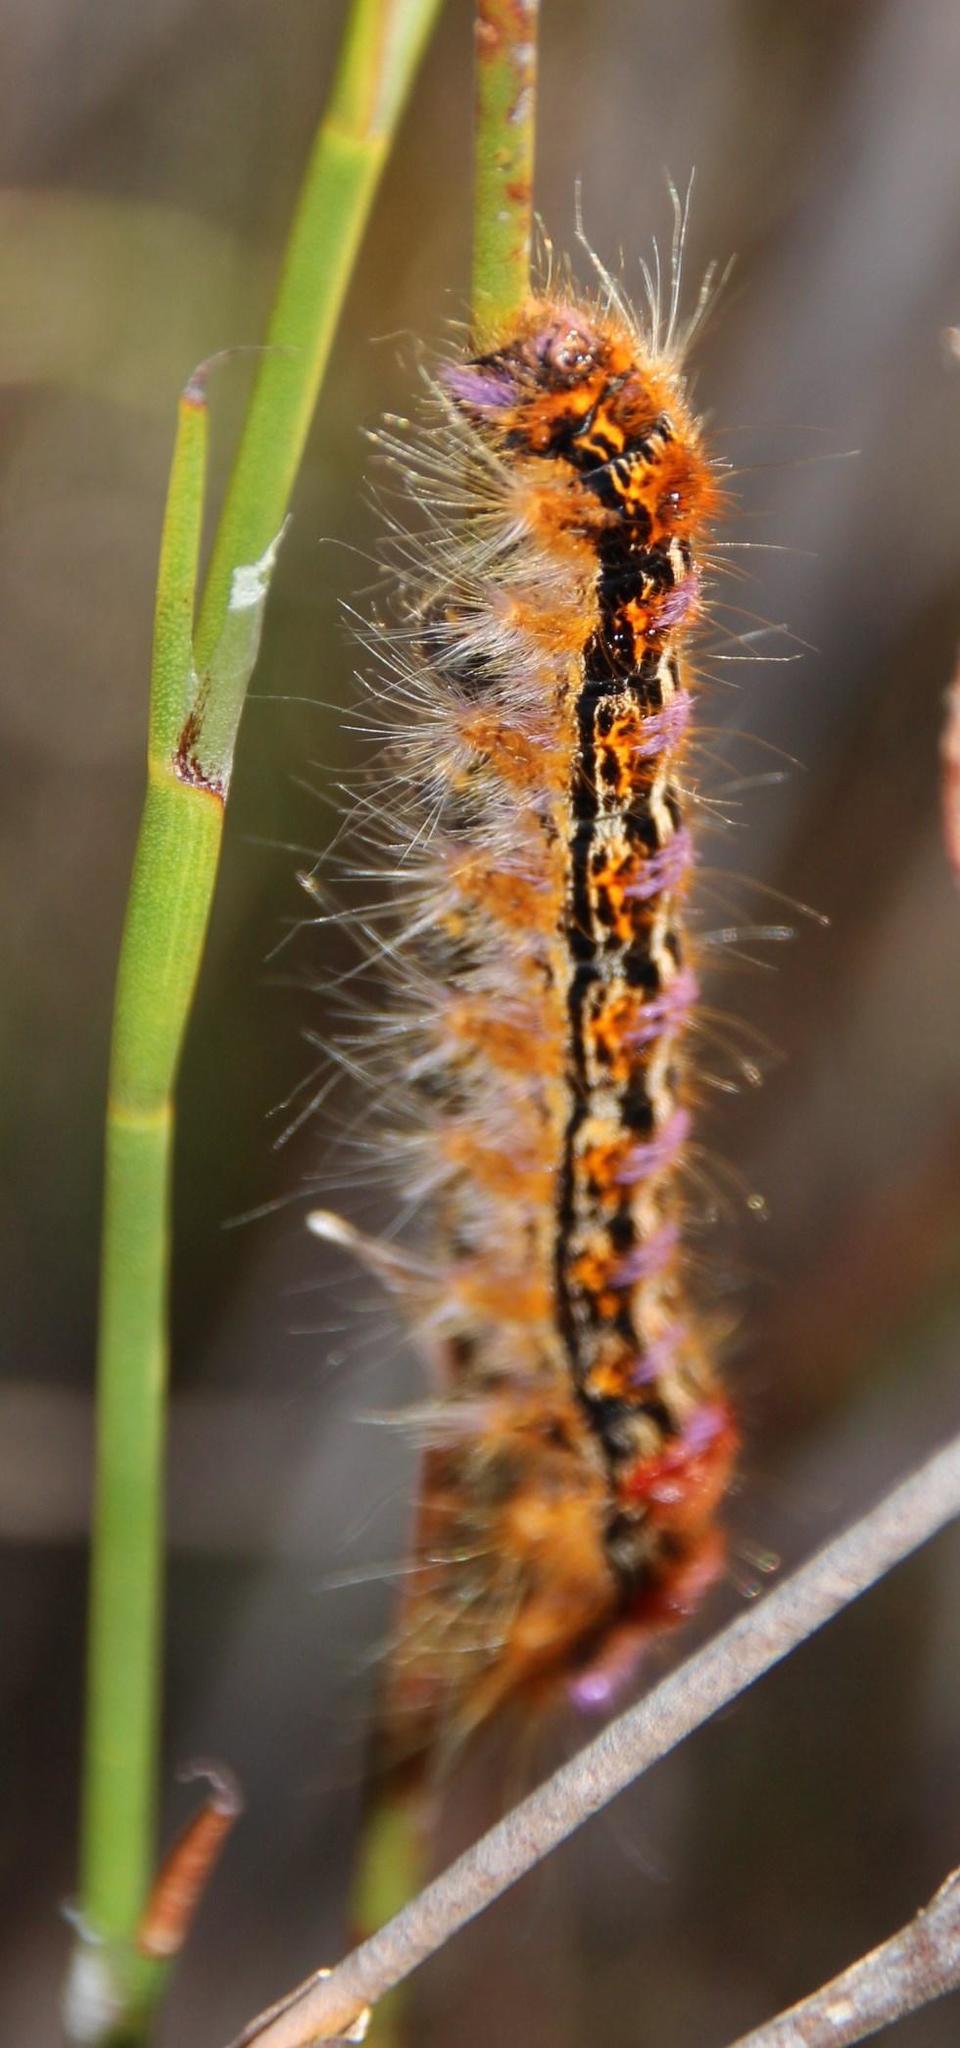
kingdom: Animalia
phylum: Arthropoda
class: Insecta
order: Lepidoptera
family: Lasiocampidae
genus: Eutricha
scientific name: Eutricha bifascia
